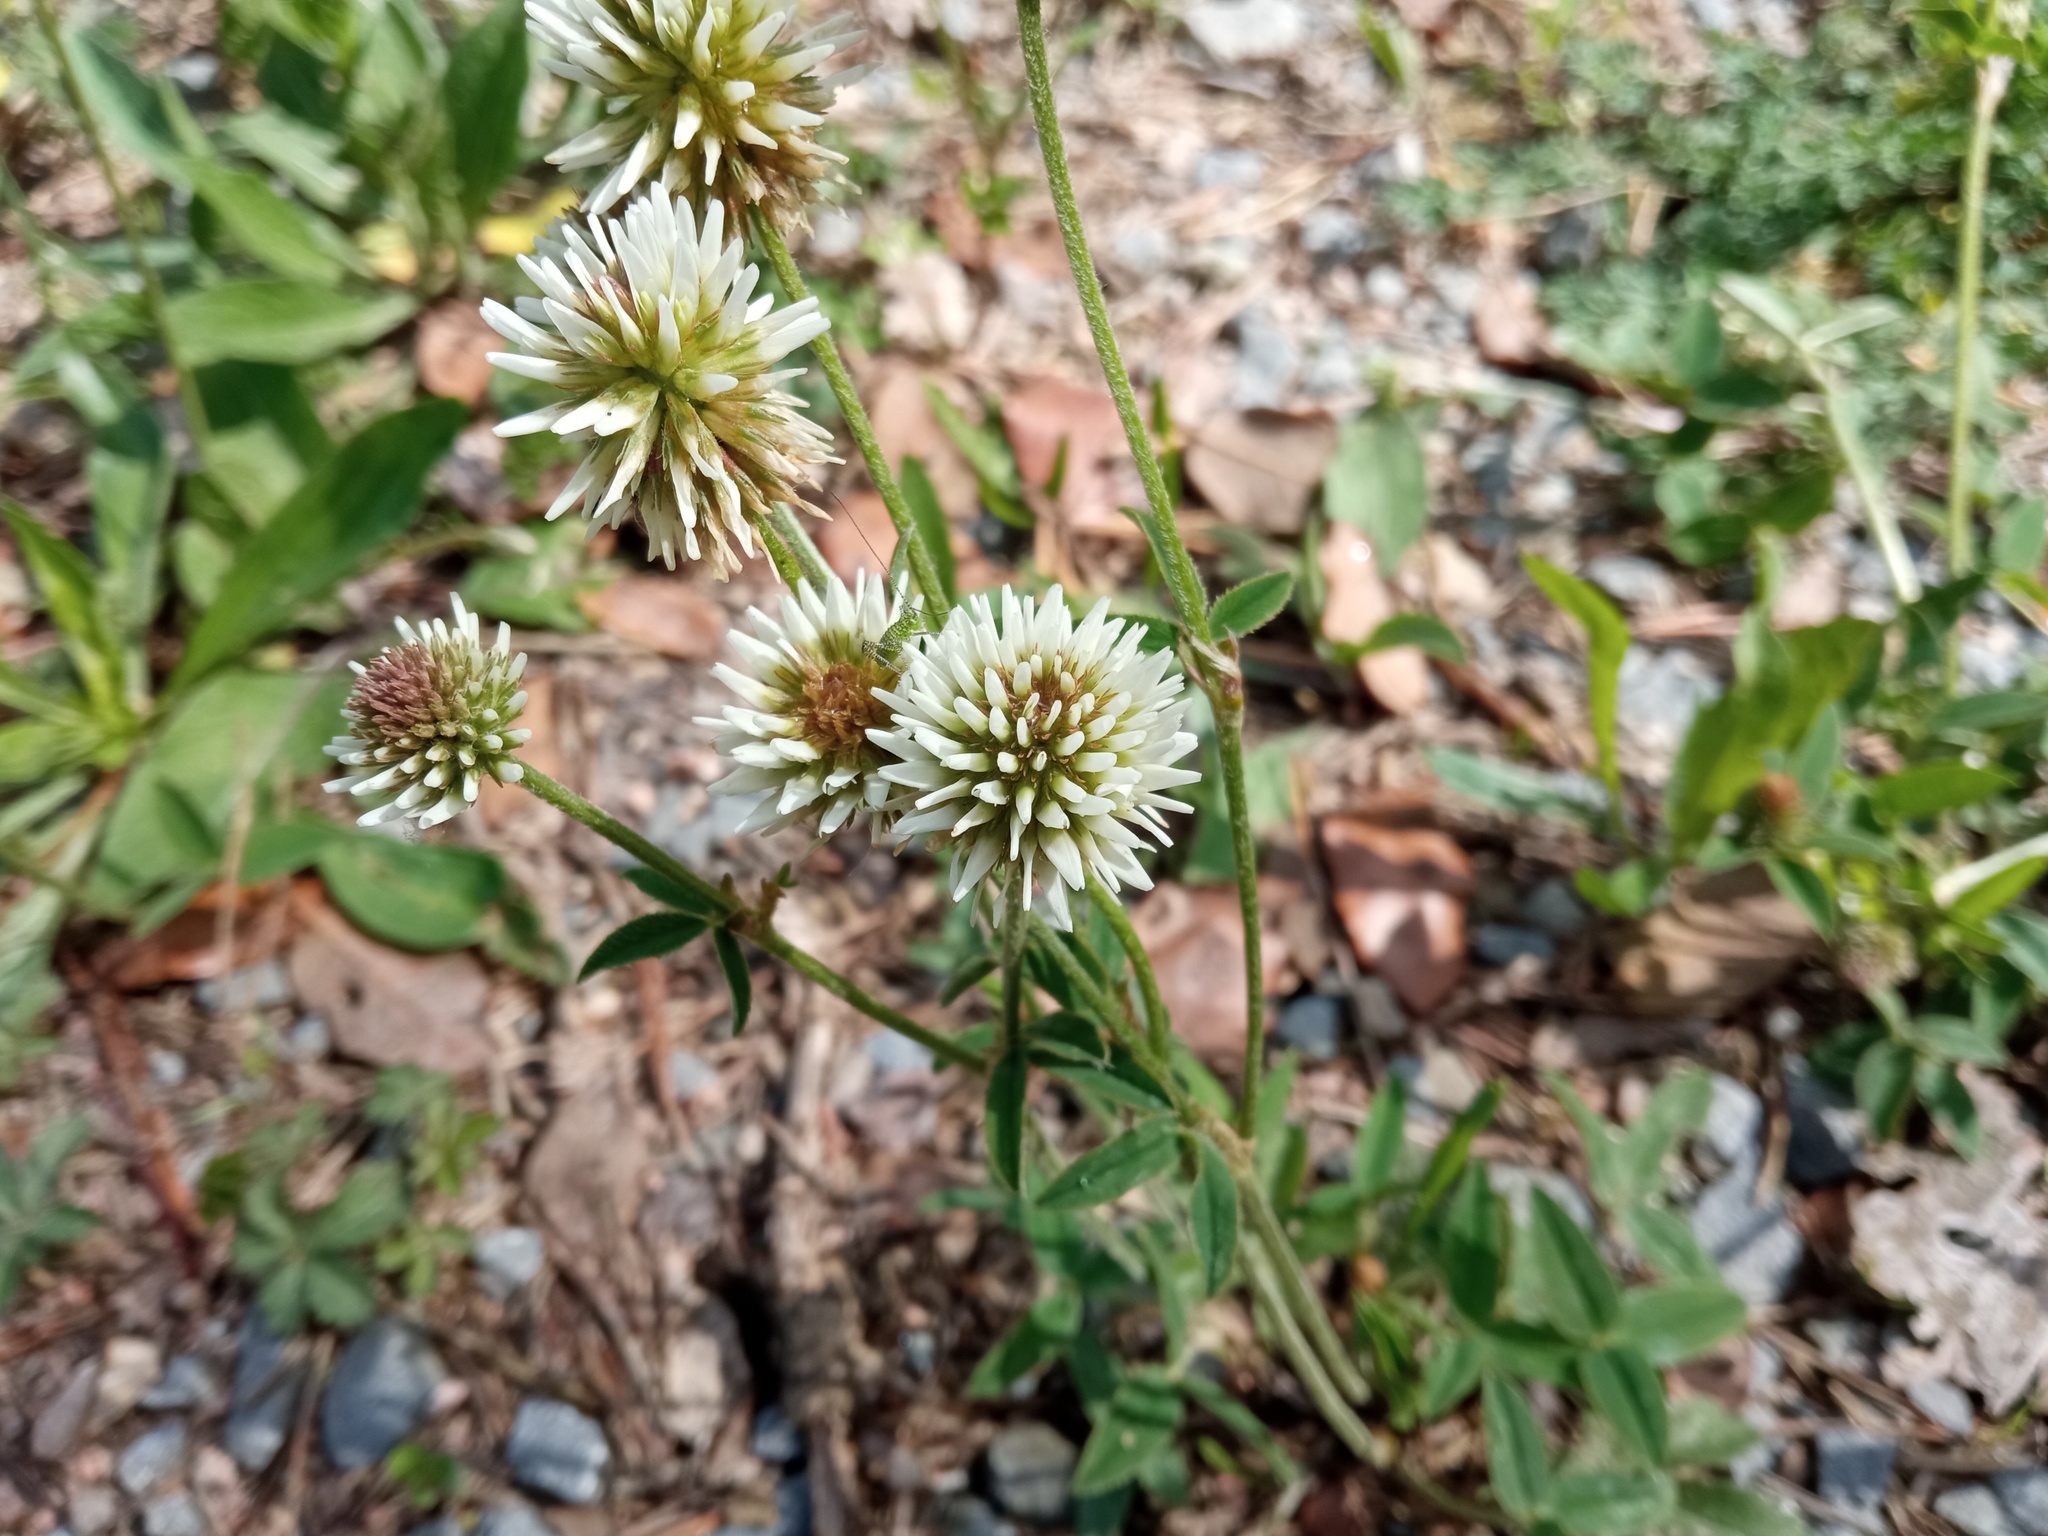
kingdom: Plantae
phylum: Tracheophyta
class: Magnoliopsida
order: Fabales
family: Fabaceae
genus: Trifolium
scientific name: Trifolium montanum
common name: Mountain clover
